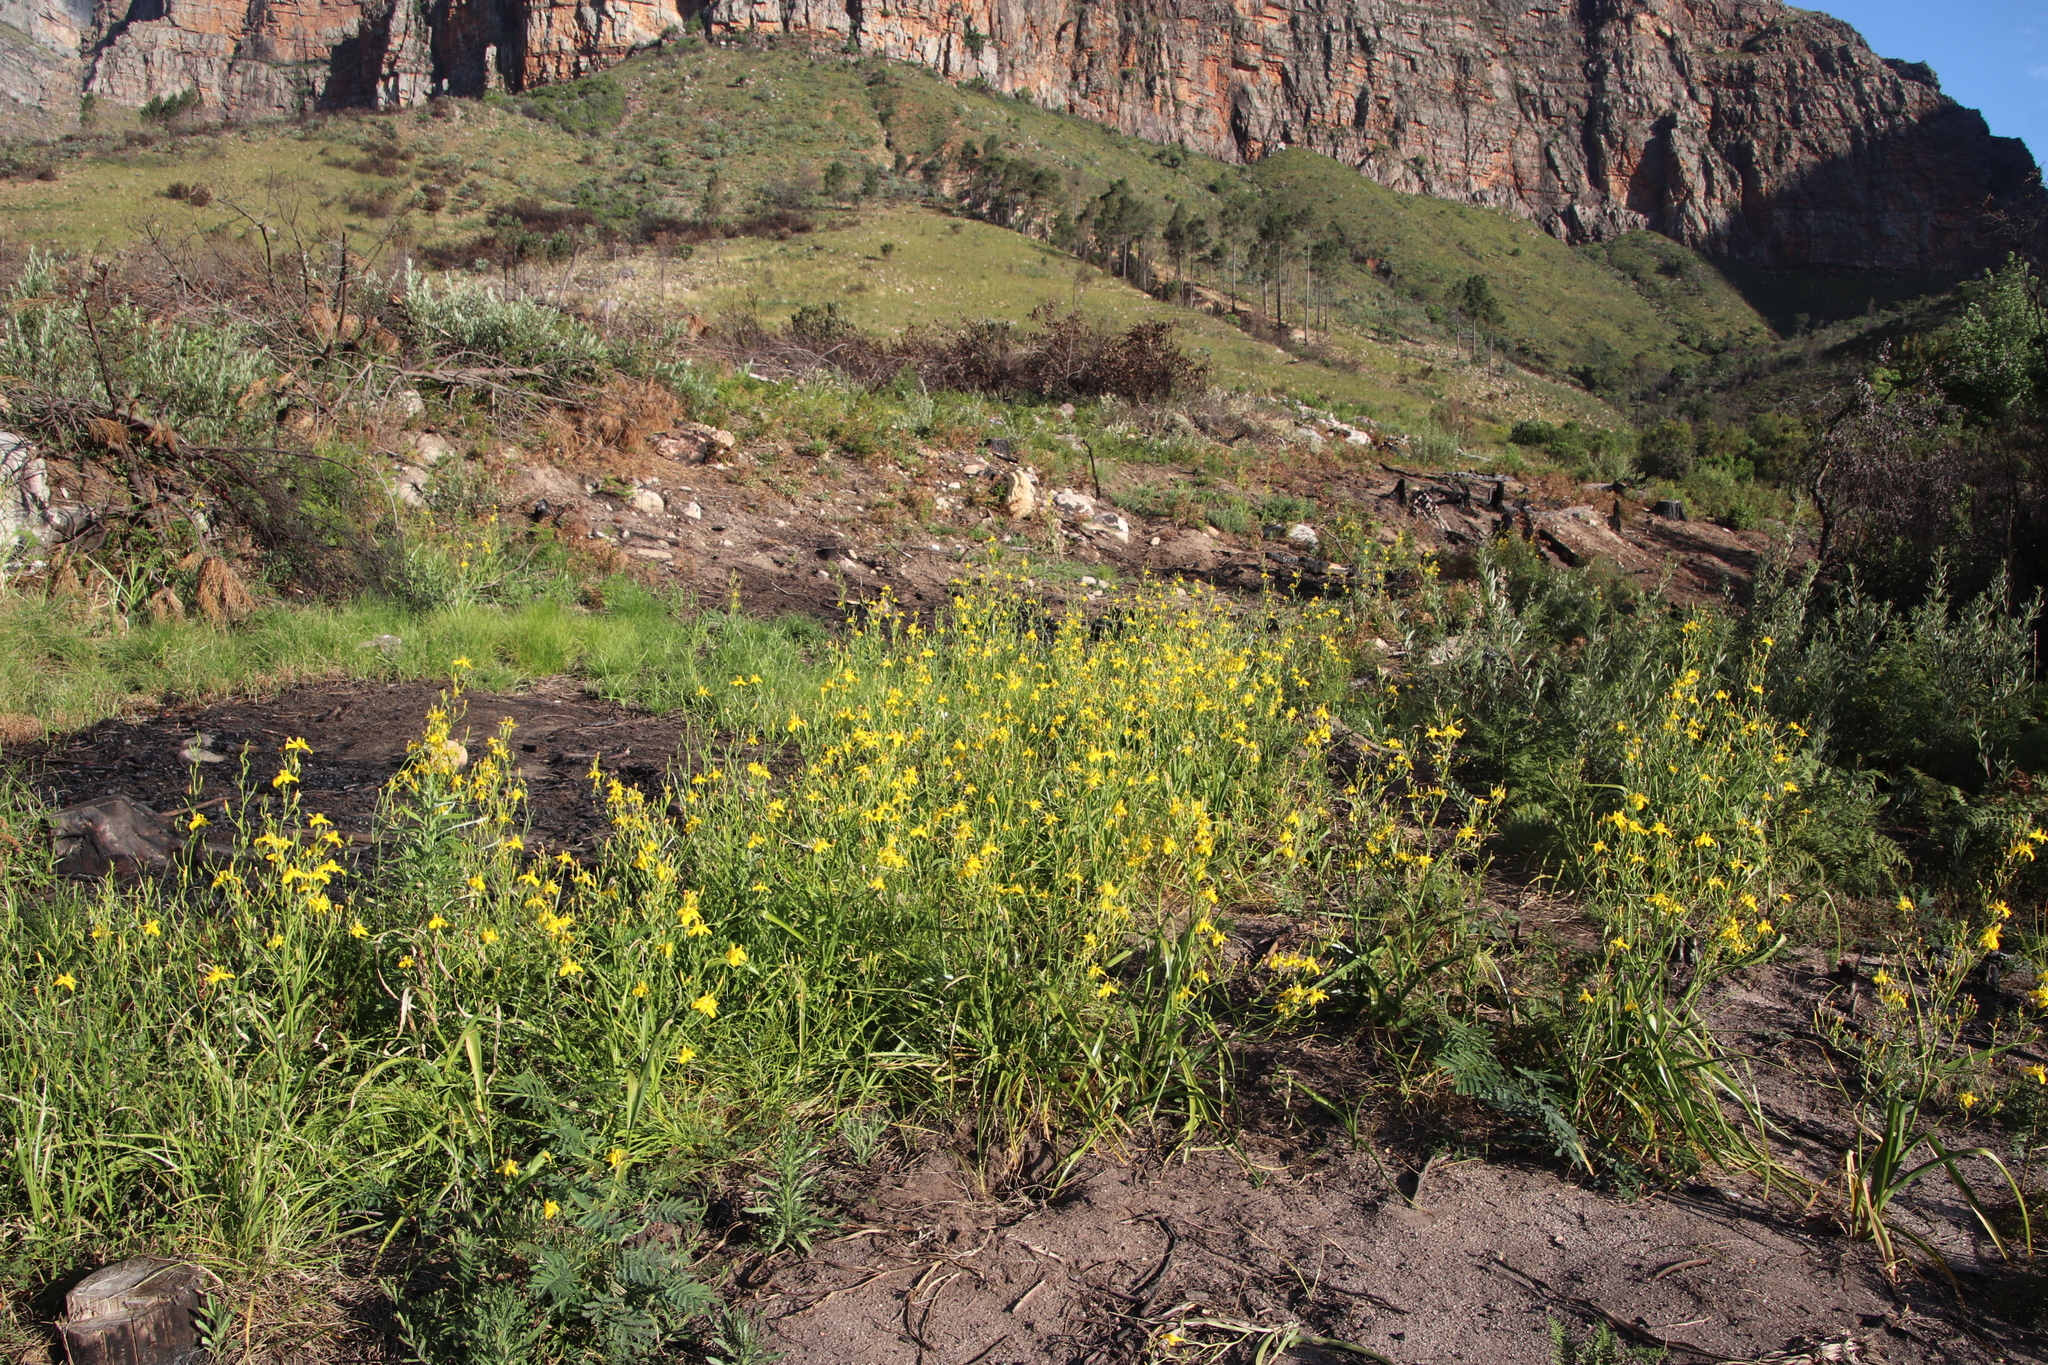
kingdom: Plantae
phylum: Tracheophyta
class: Liliopsida
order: Asparagales
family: Iridaceae
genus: Moraea
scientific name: Moraea ramosissima
